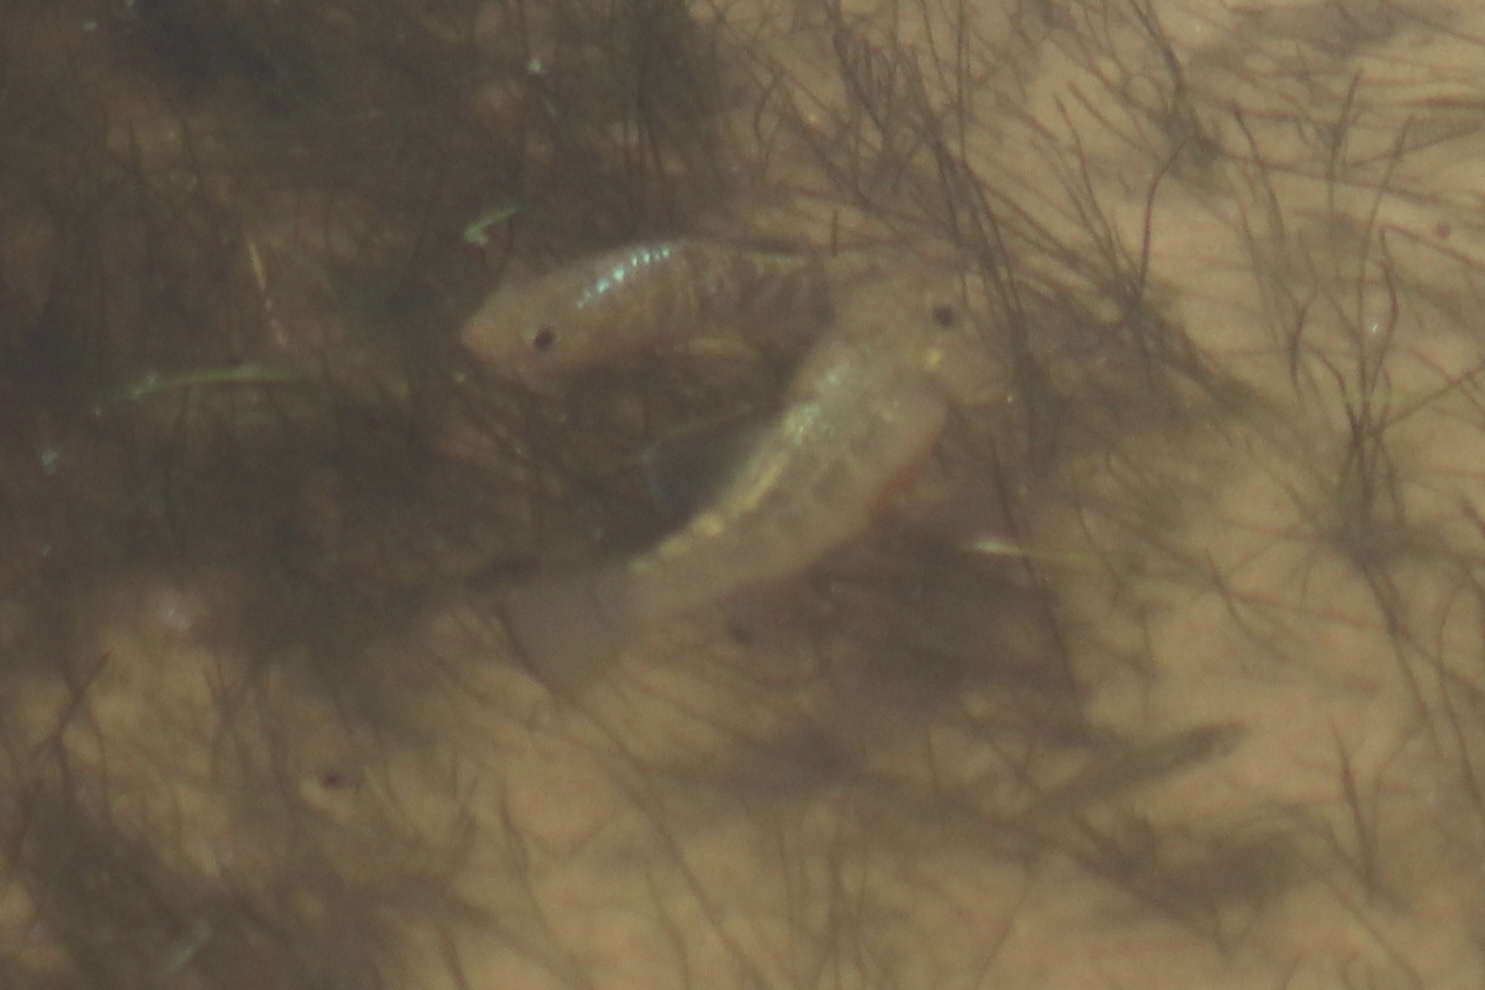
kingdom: Animalia
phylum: Chordata
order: Cyprinodontiformes
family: Cyprinodontidae
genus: Cyprinodon
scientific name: Cyprinodon variegatus
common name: Sheepshead minnow
